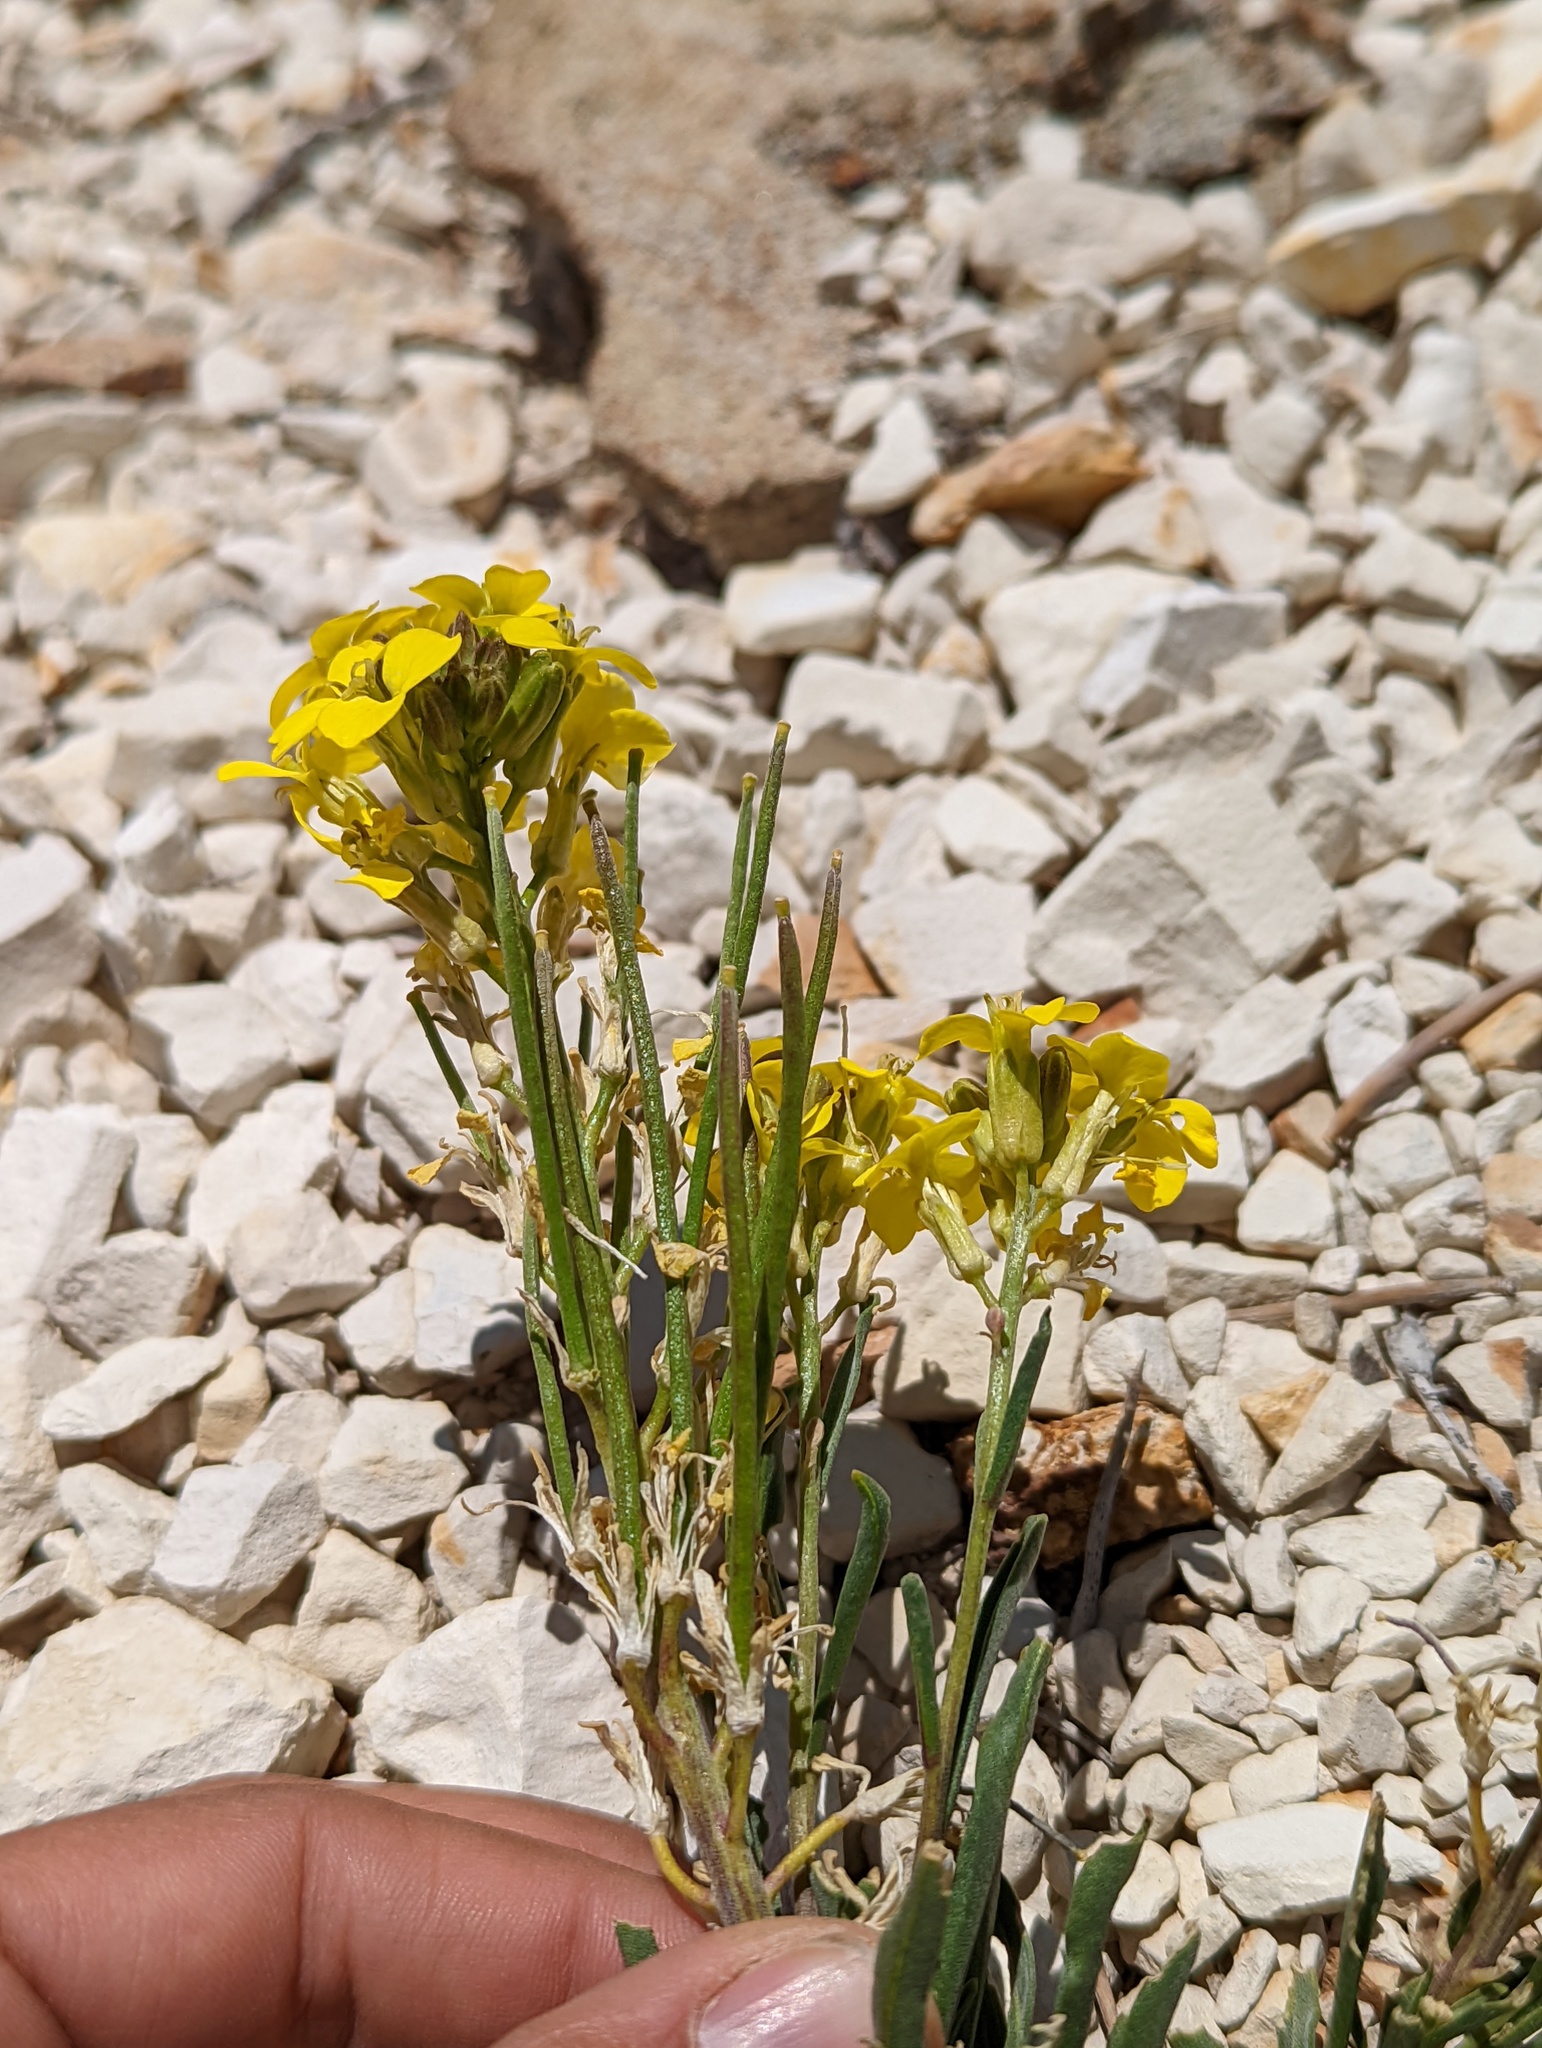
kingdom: Plantae
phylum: Tracheophyta
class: Magnoliopsida
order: Brassicales
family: Brassicaceae
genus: Erysimum
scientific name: Erysimum capitatum
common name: Western wallflower
